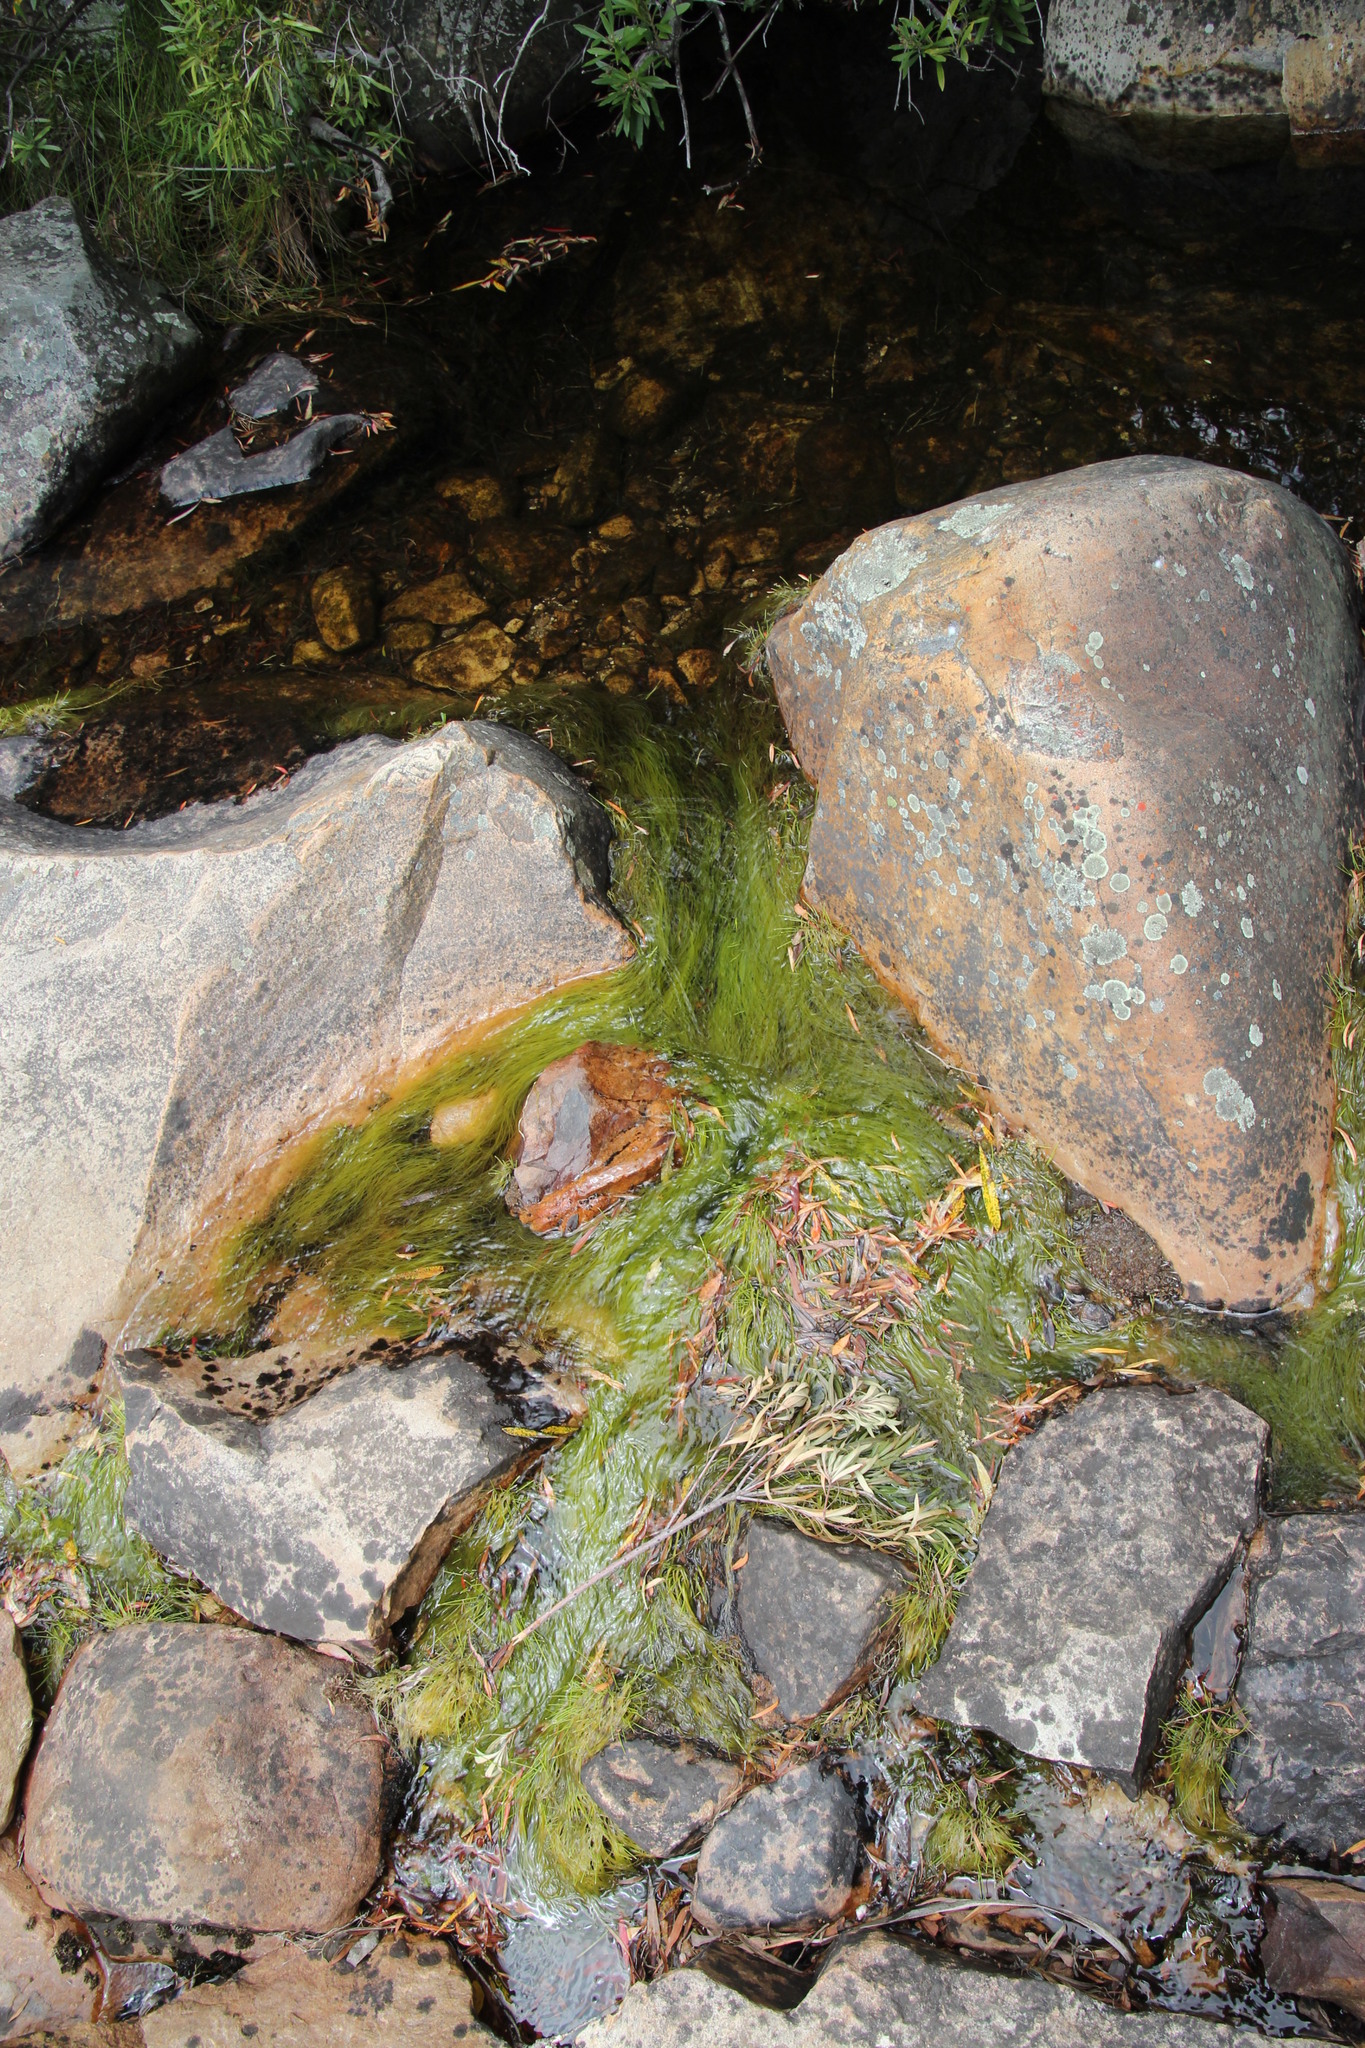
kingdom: Plantae
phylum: Tracheophyta
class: Liliopsida
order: Poales
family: Cyperaceae
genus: Isolepis
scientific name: Isolepis digitata
